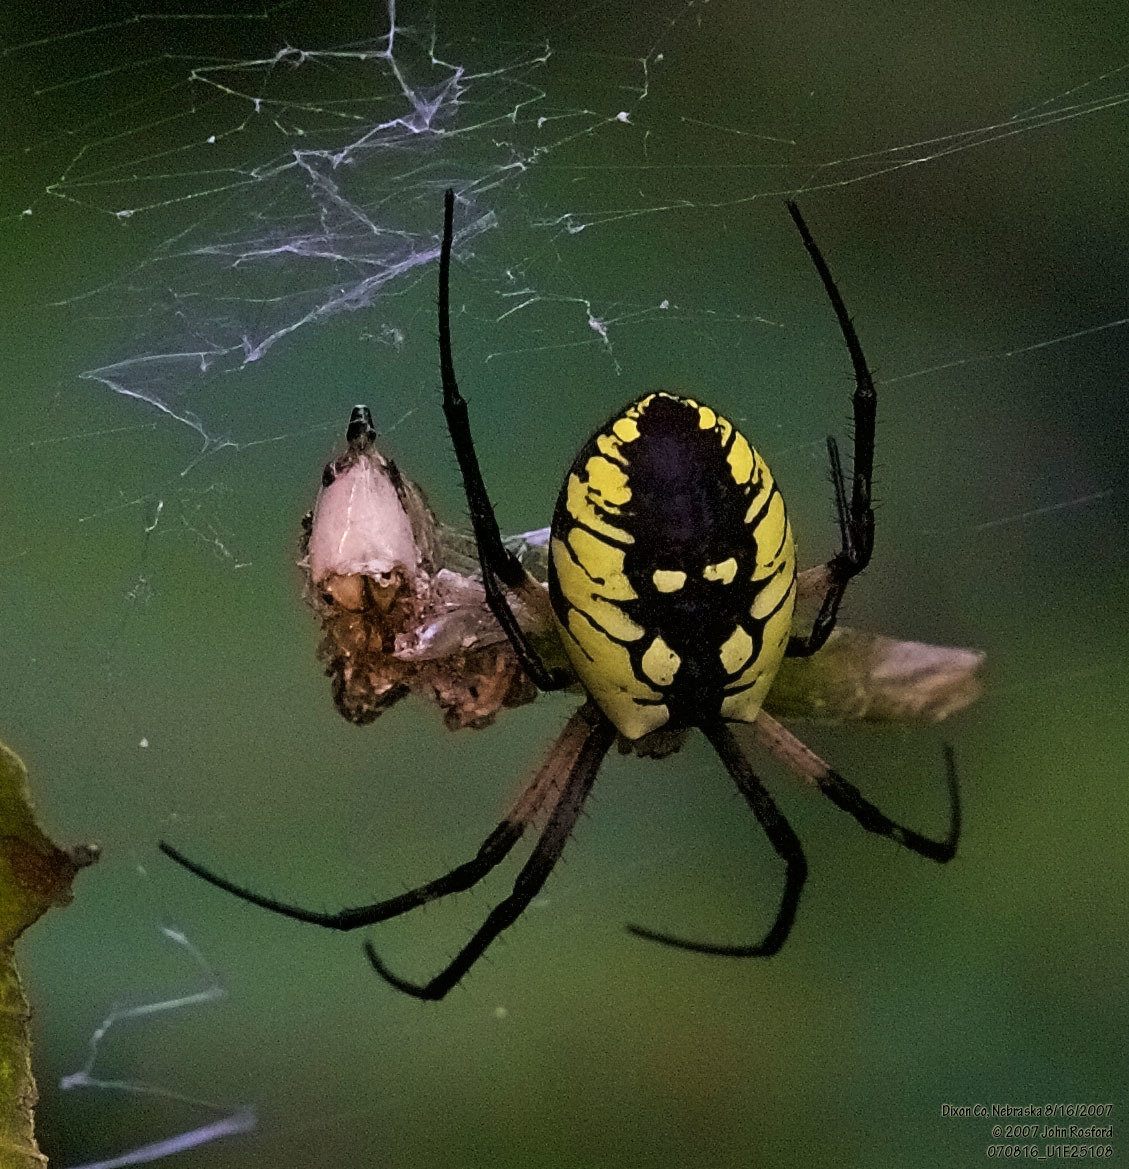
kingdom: Animalia
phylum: Arthropoda
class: Arachnida
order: Araneae
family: Araneidae
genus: Argiope
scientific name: Argiope aurantia
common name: Orb weavers
